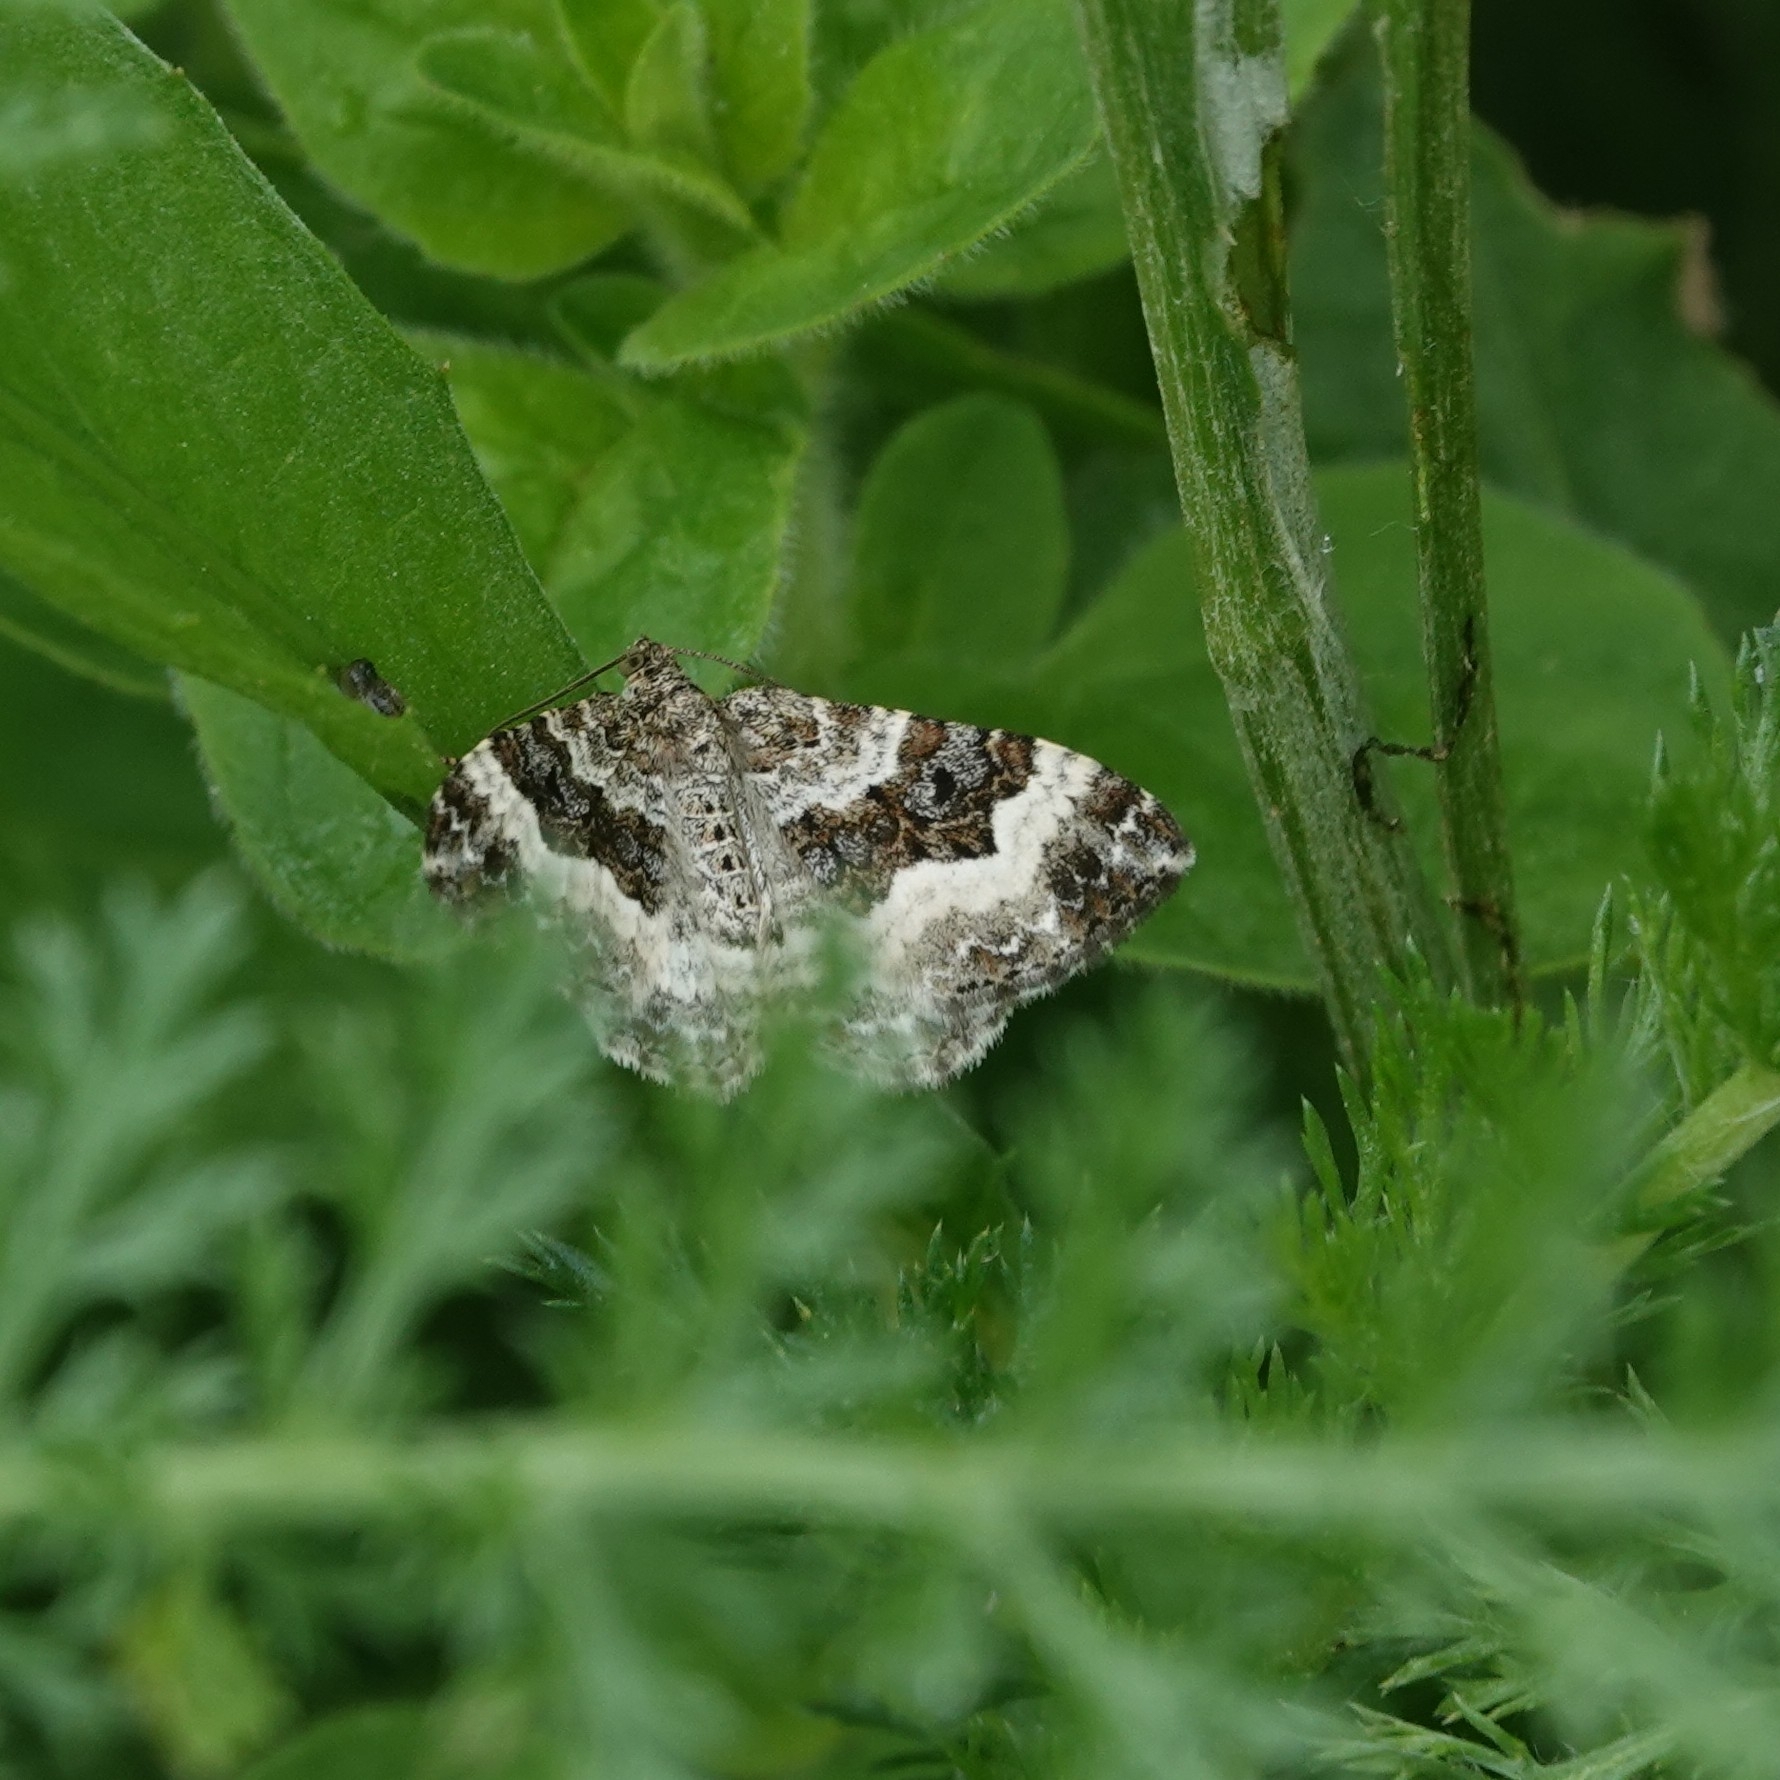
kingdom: Animalia
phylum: Arthropoda
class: Insecta
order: Lepidoptera
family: Geometridae
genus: Epirrhoe
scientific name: Epirrhoe alternata
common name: Common carpet
